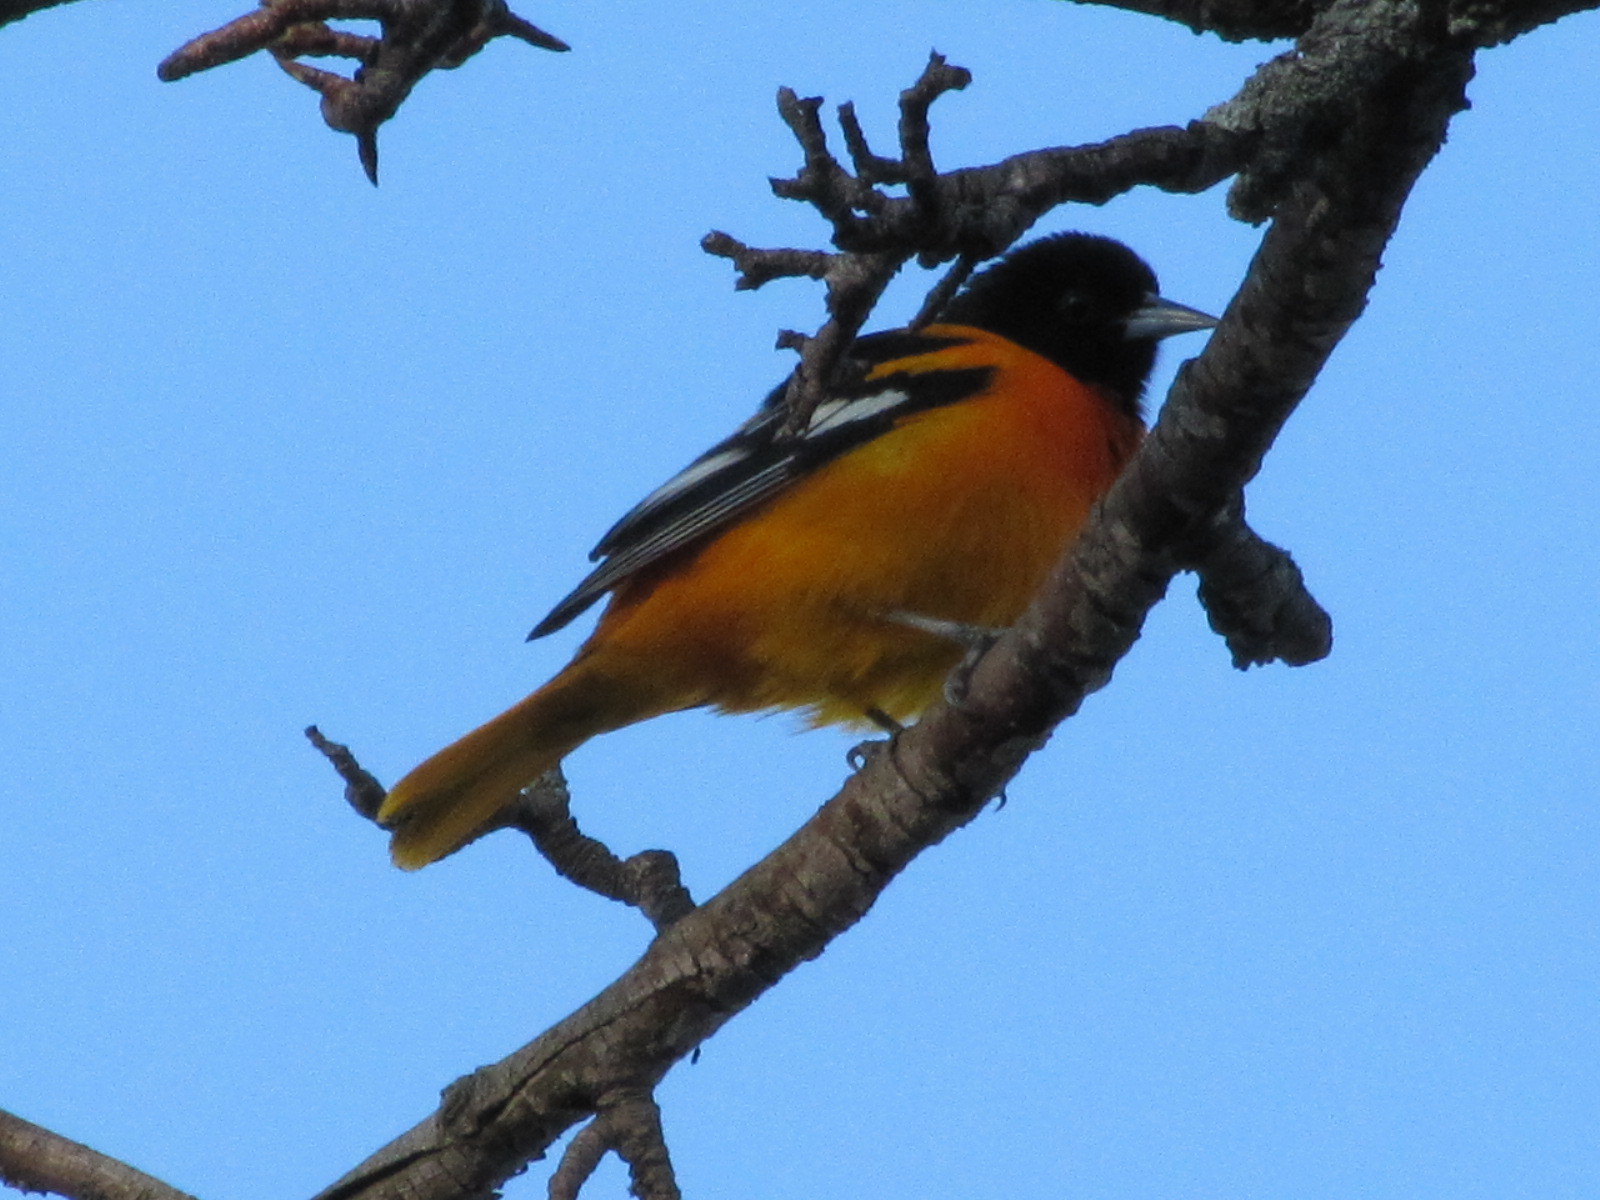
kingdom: Animalia
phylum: Chordata
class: Aves
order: Passeriformes
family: Icteridae
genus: Icterus
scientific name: Icterus galbula
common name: Baltimore oriole
